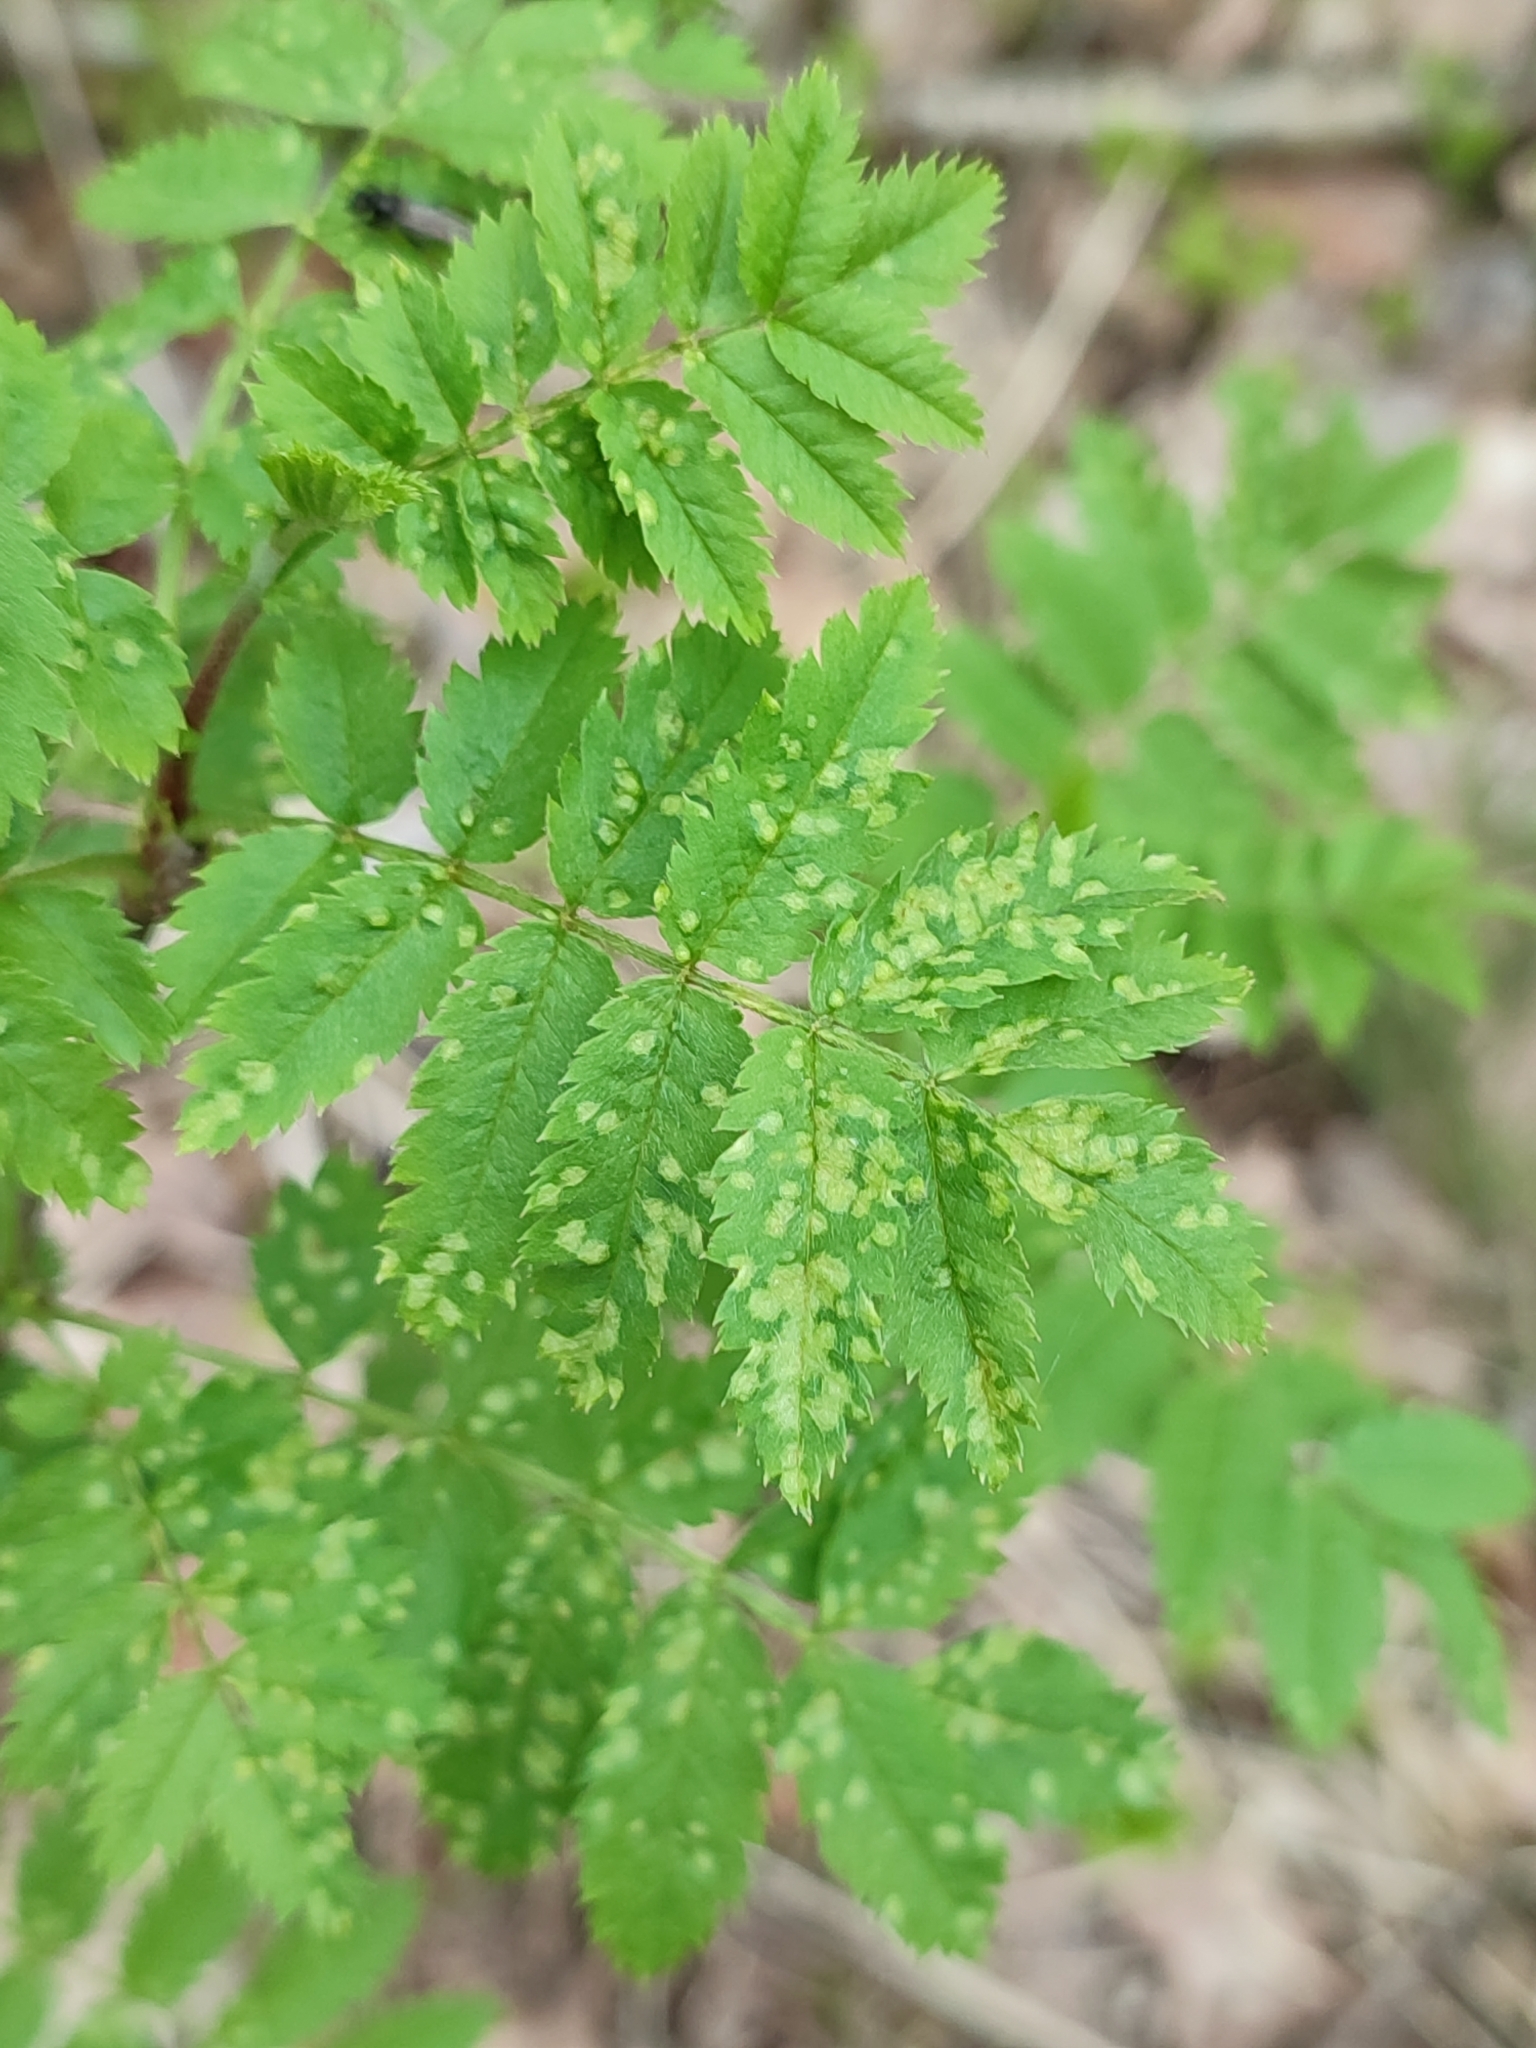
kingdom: Plantae
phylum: Tracheophyta
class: Magnoliopsida
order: Rosales
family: Rosaceae
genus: Sorbus
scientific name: Sorbus aucuparia
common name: Rowan
